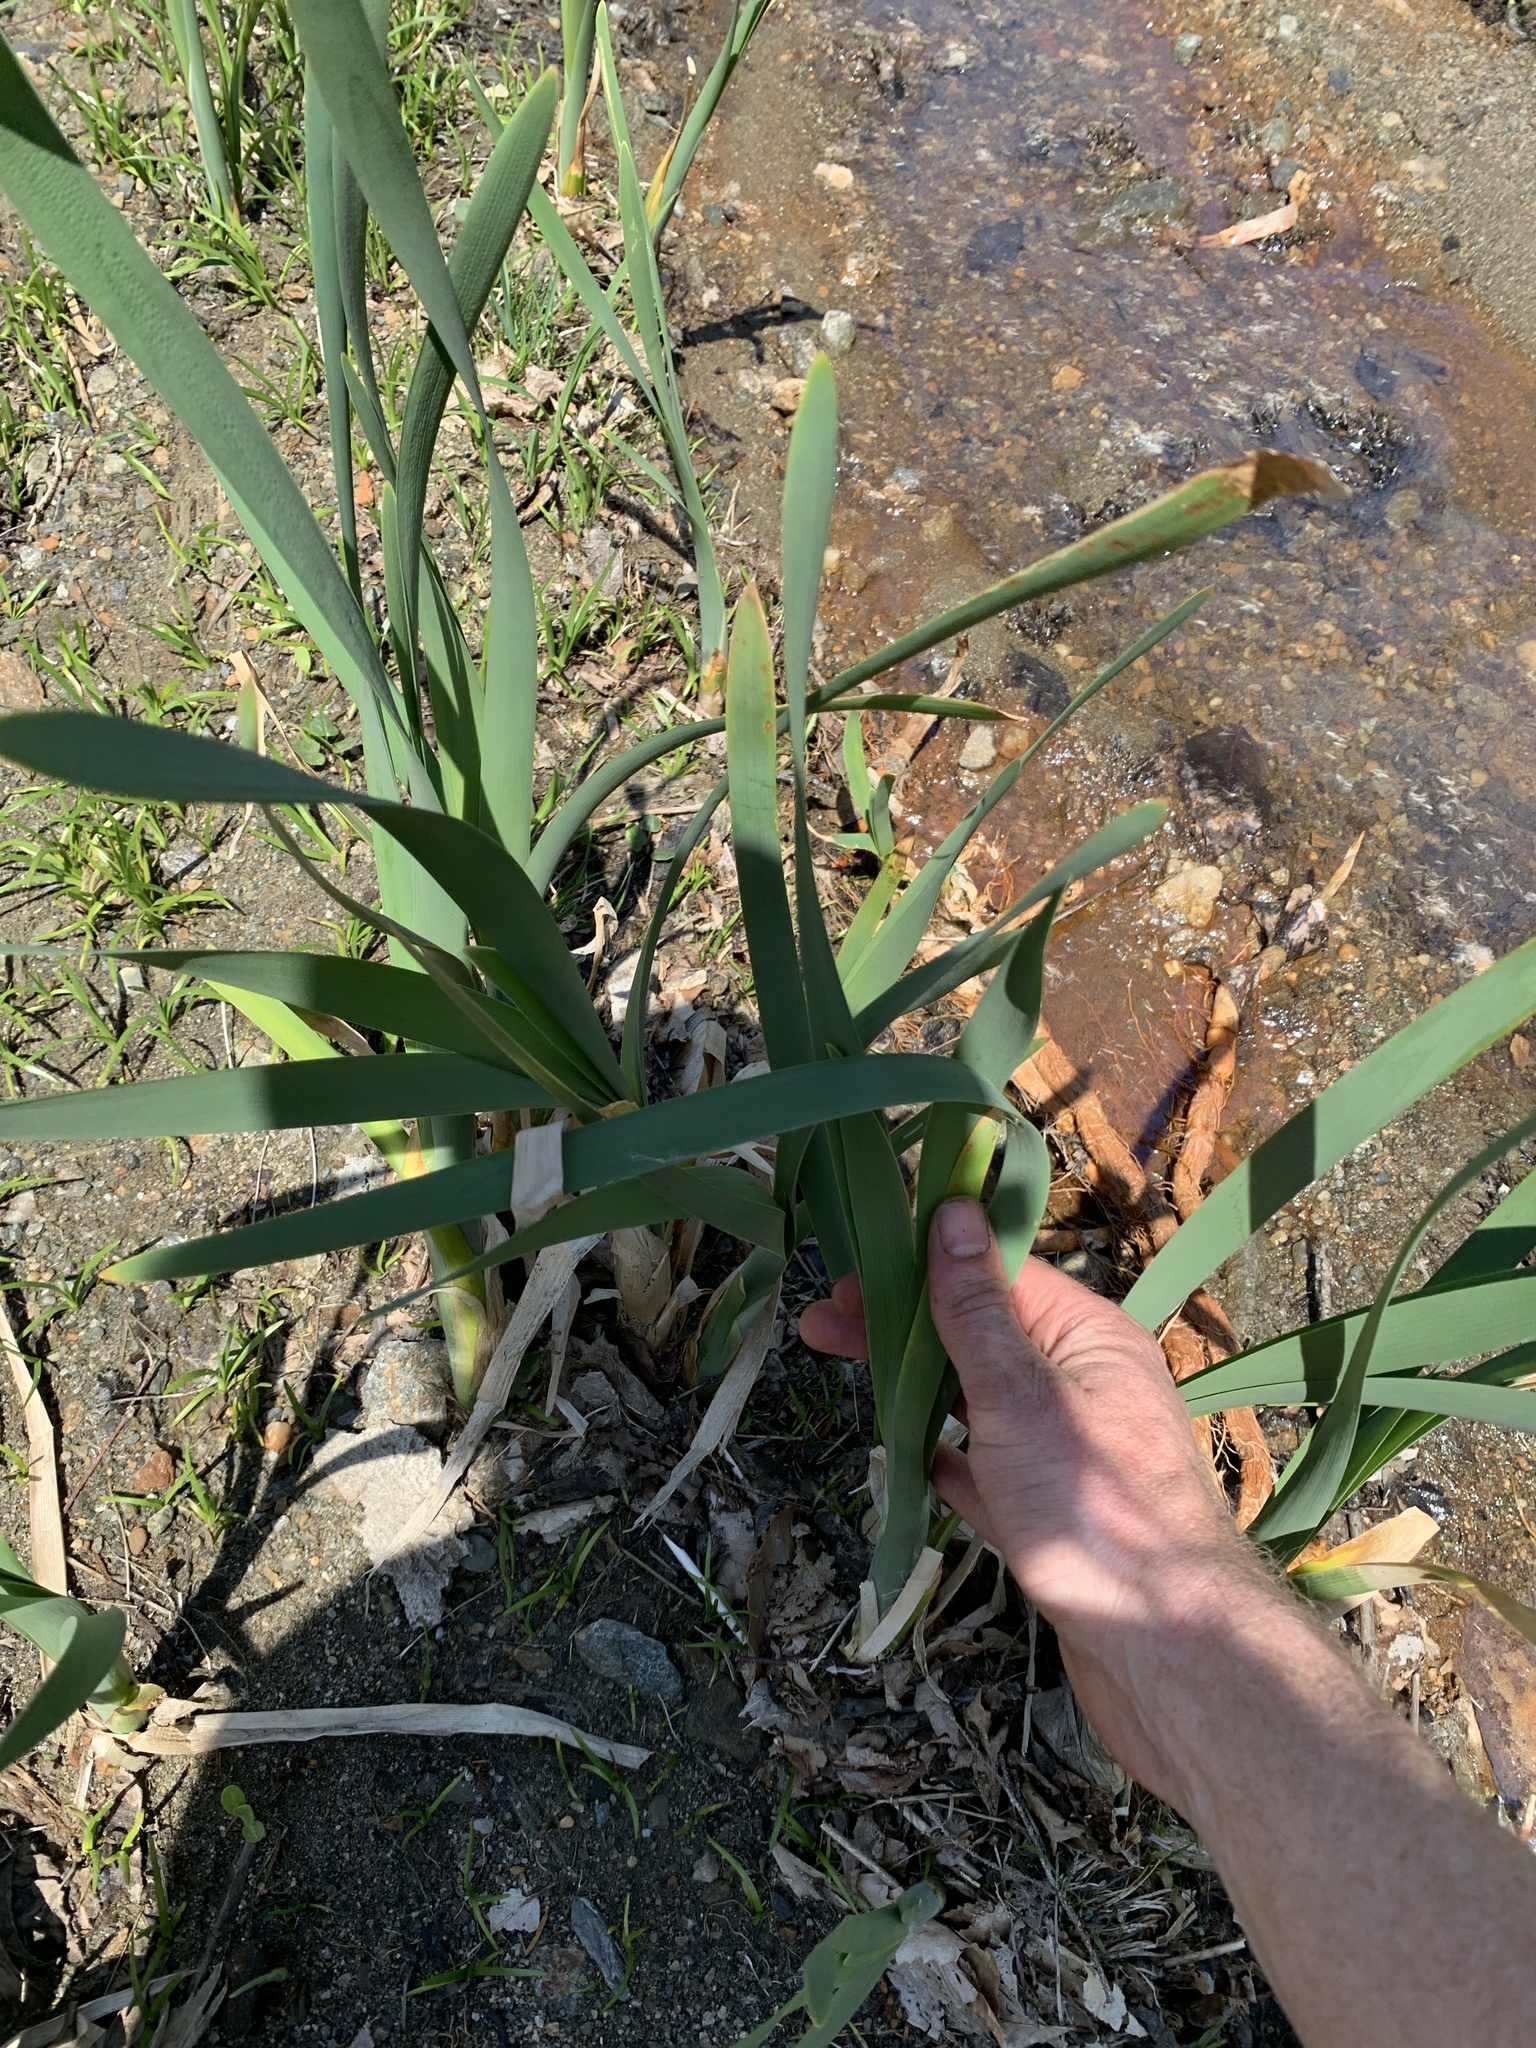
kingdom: Plantae
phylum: Tracheophyta
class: Liliopsida
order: Poales
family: Typhaceae
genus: Typha
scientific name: Typha latifolia
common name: Broadleaf cattail
